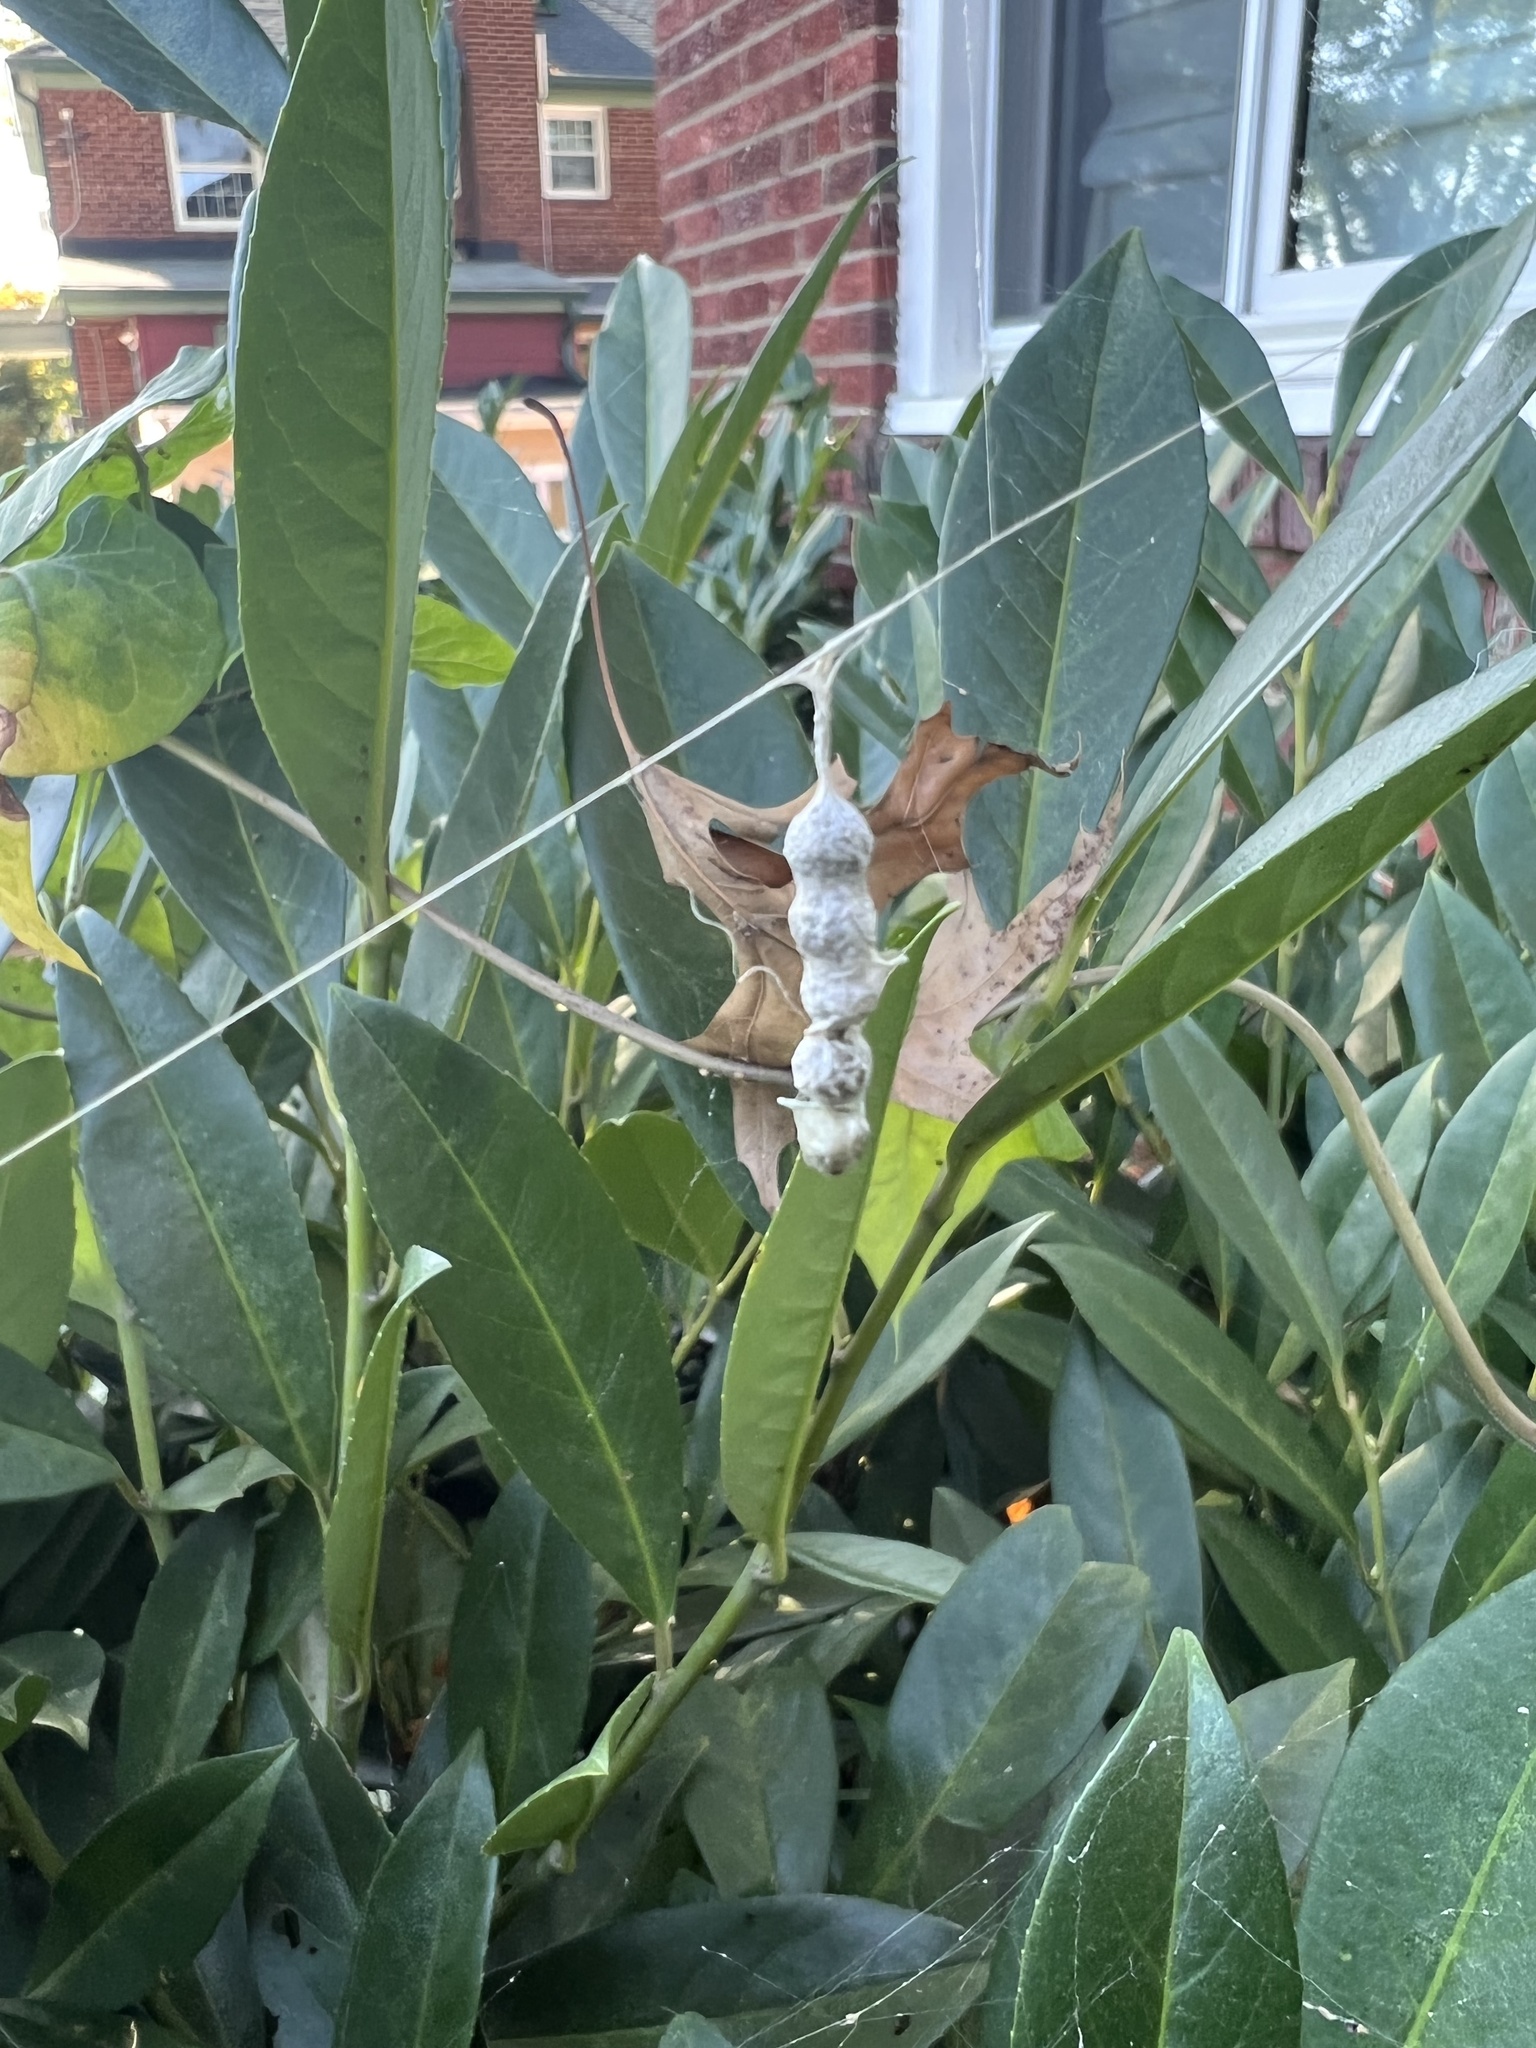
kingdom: Animalia
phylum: Arthropoda
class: Arachnida
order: Araneae
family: Araneidae
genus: Mecynogea
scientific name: Mecynogea lemniscata
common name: Orb weavers
